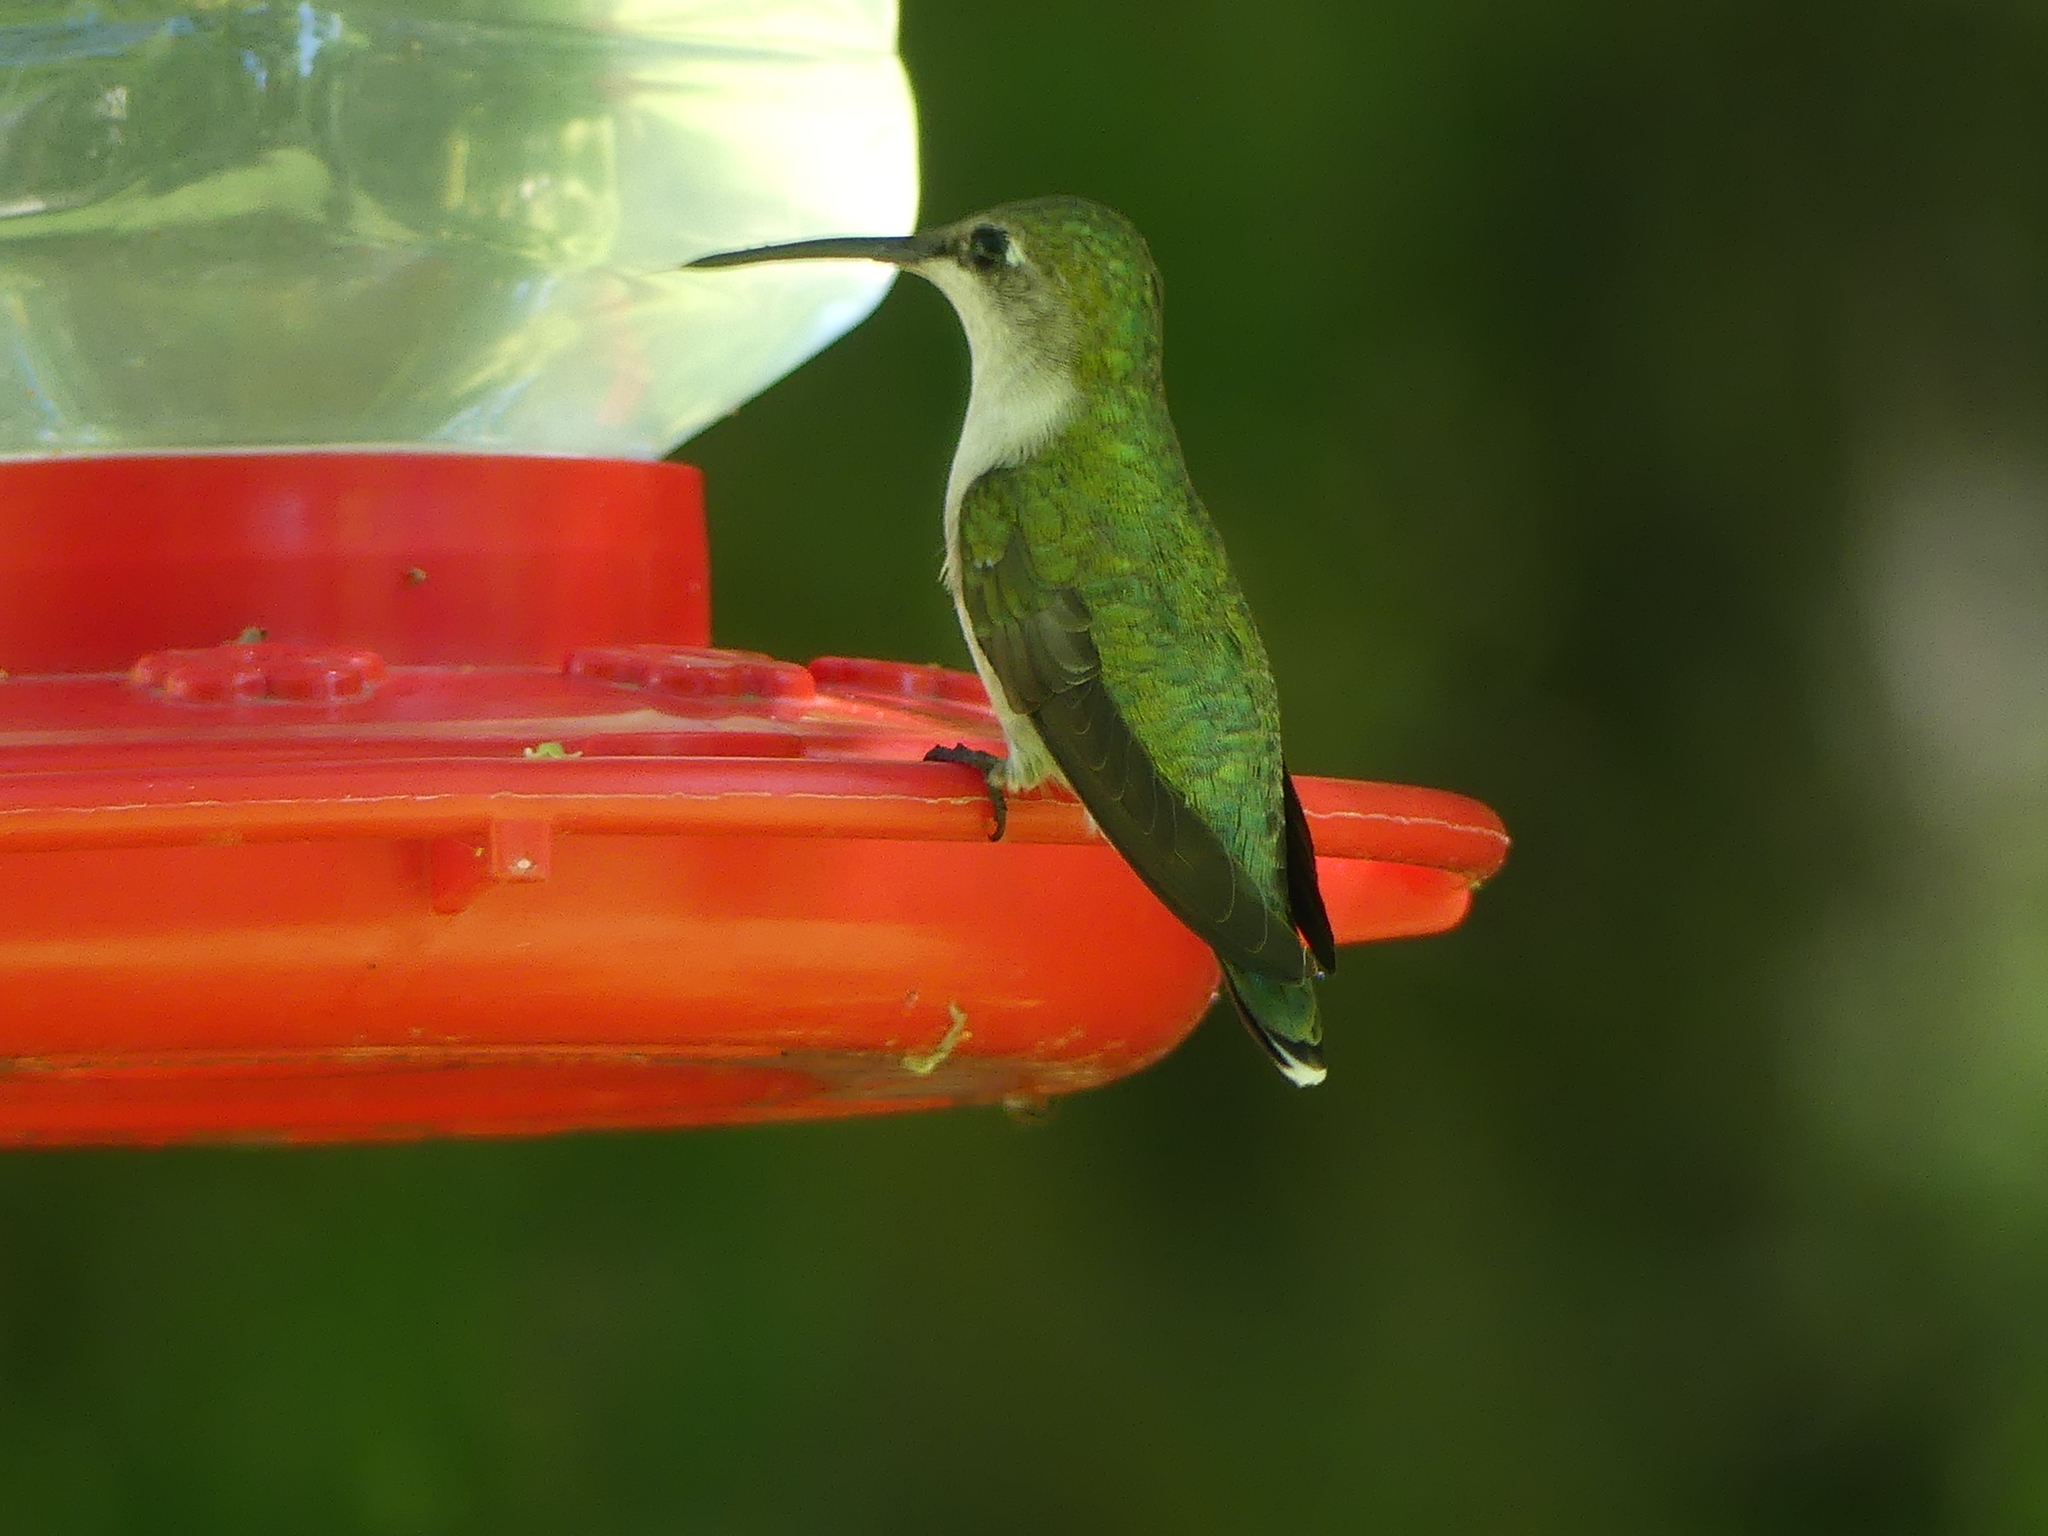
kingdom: Animalia
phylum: Chordata
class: Aves
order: Apodiformes
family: Trochilidae
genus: Archilochus
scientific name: Archilochus alexandri
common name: Black-chinned hummingbird
